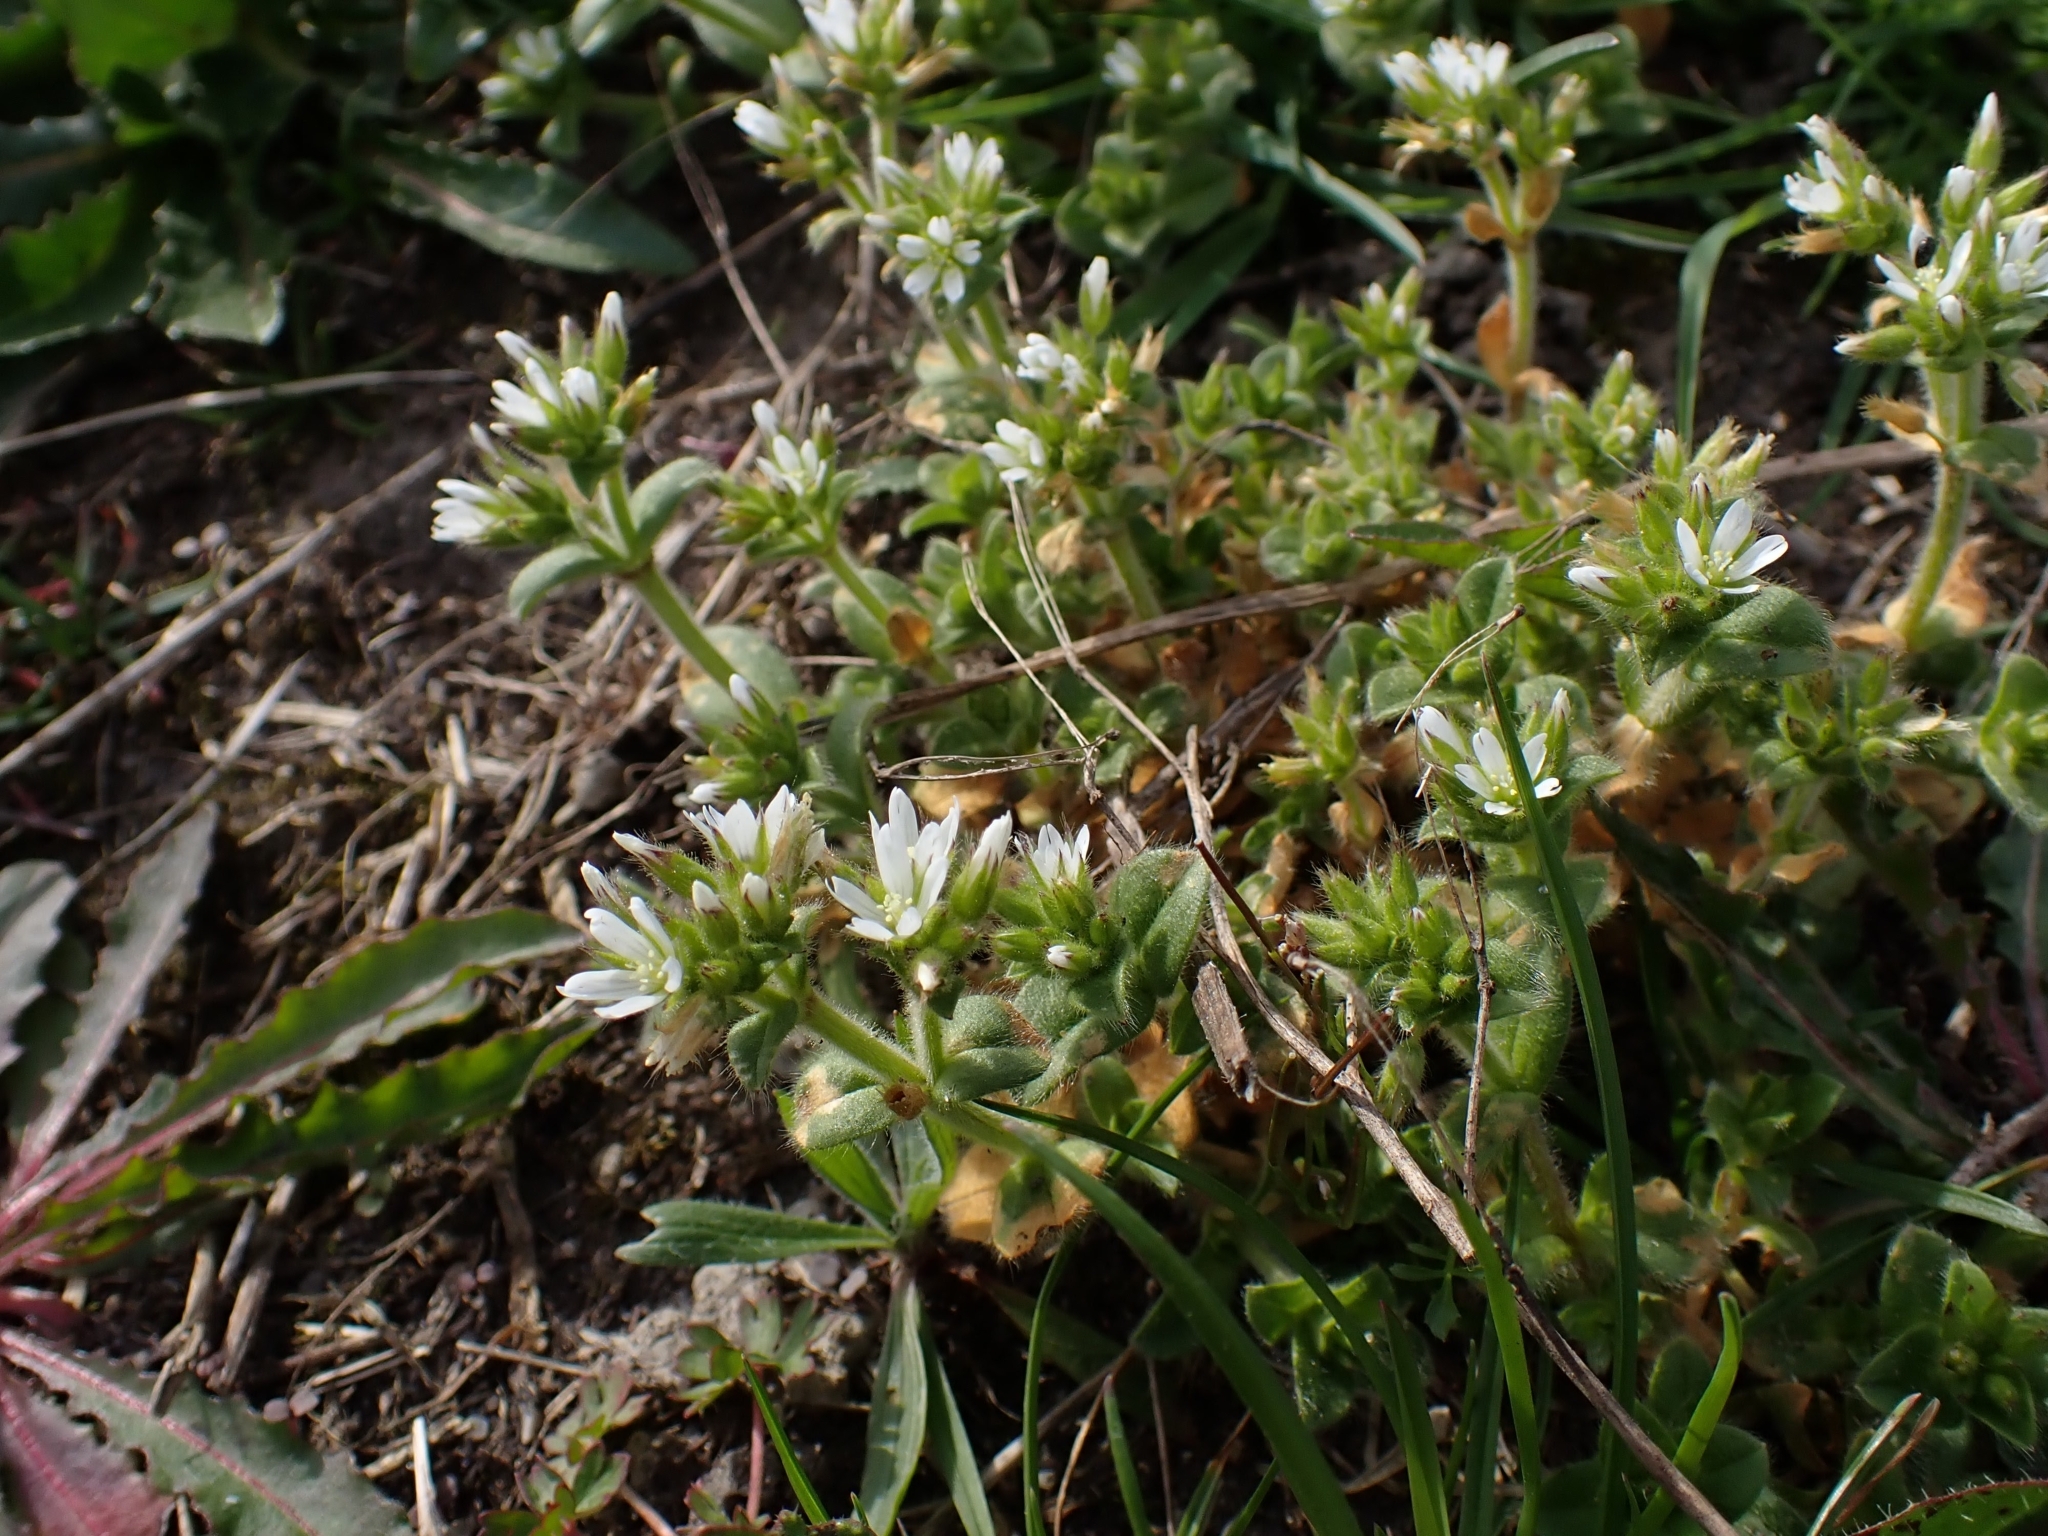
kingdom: Plantae
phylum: Tracheophyta
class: Magnoliopsida
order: Caryophyllales
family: Caryophyllaceae
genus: Cerastium
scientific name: Cerastium glomeratum
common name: Sticky chickweed
